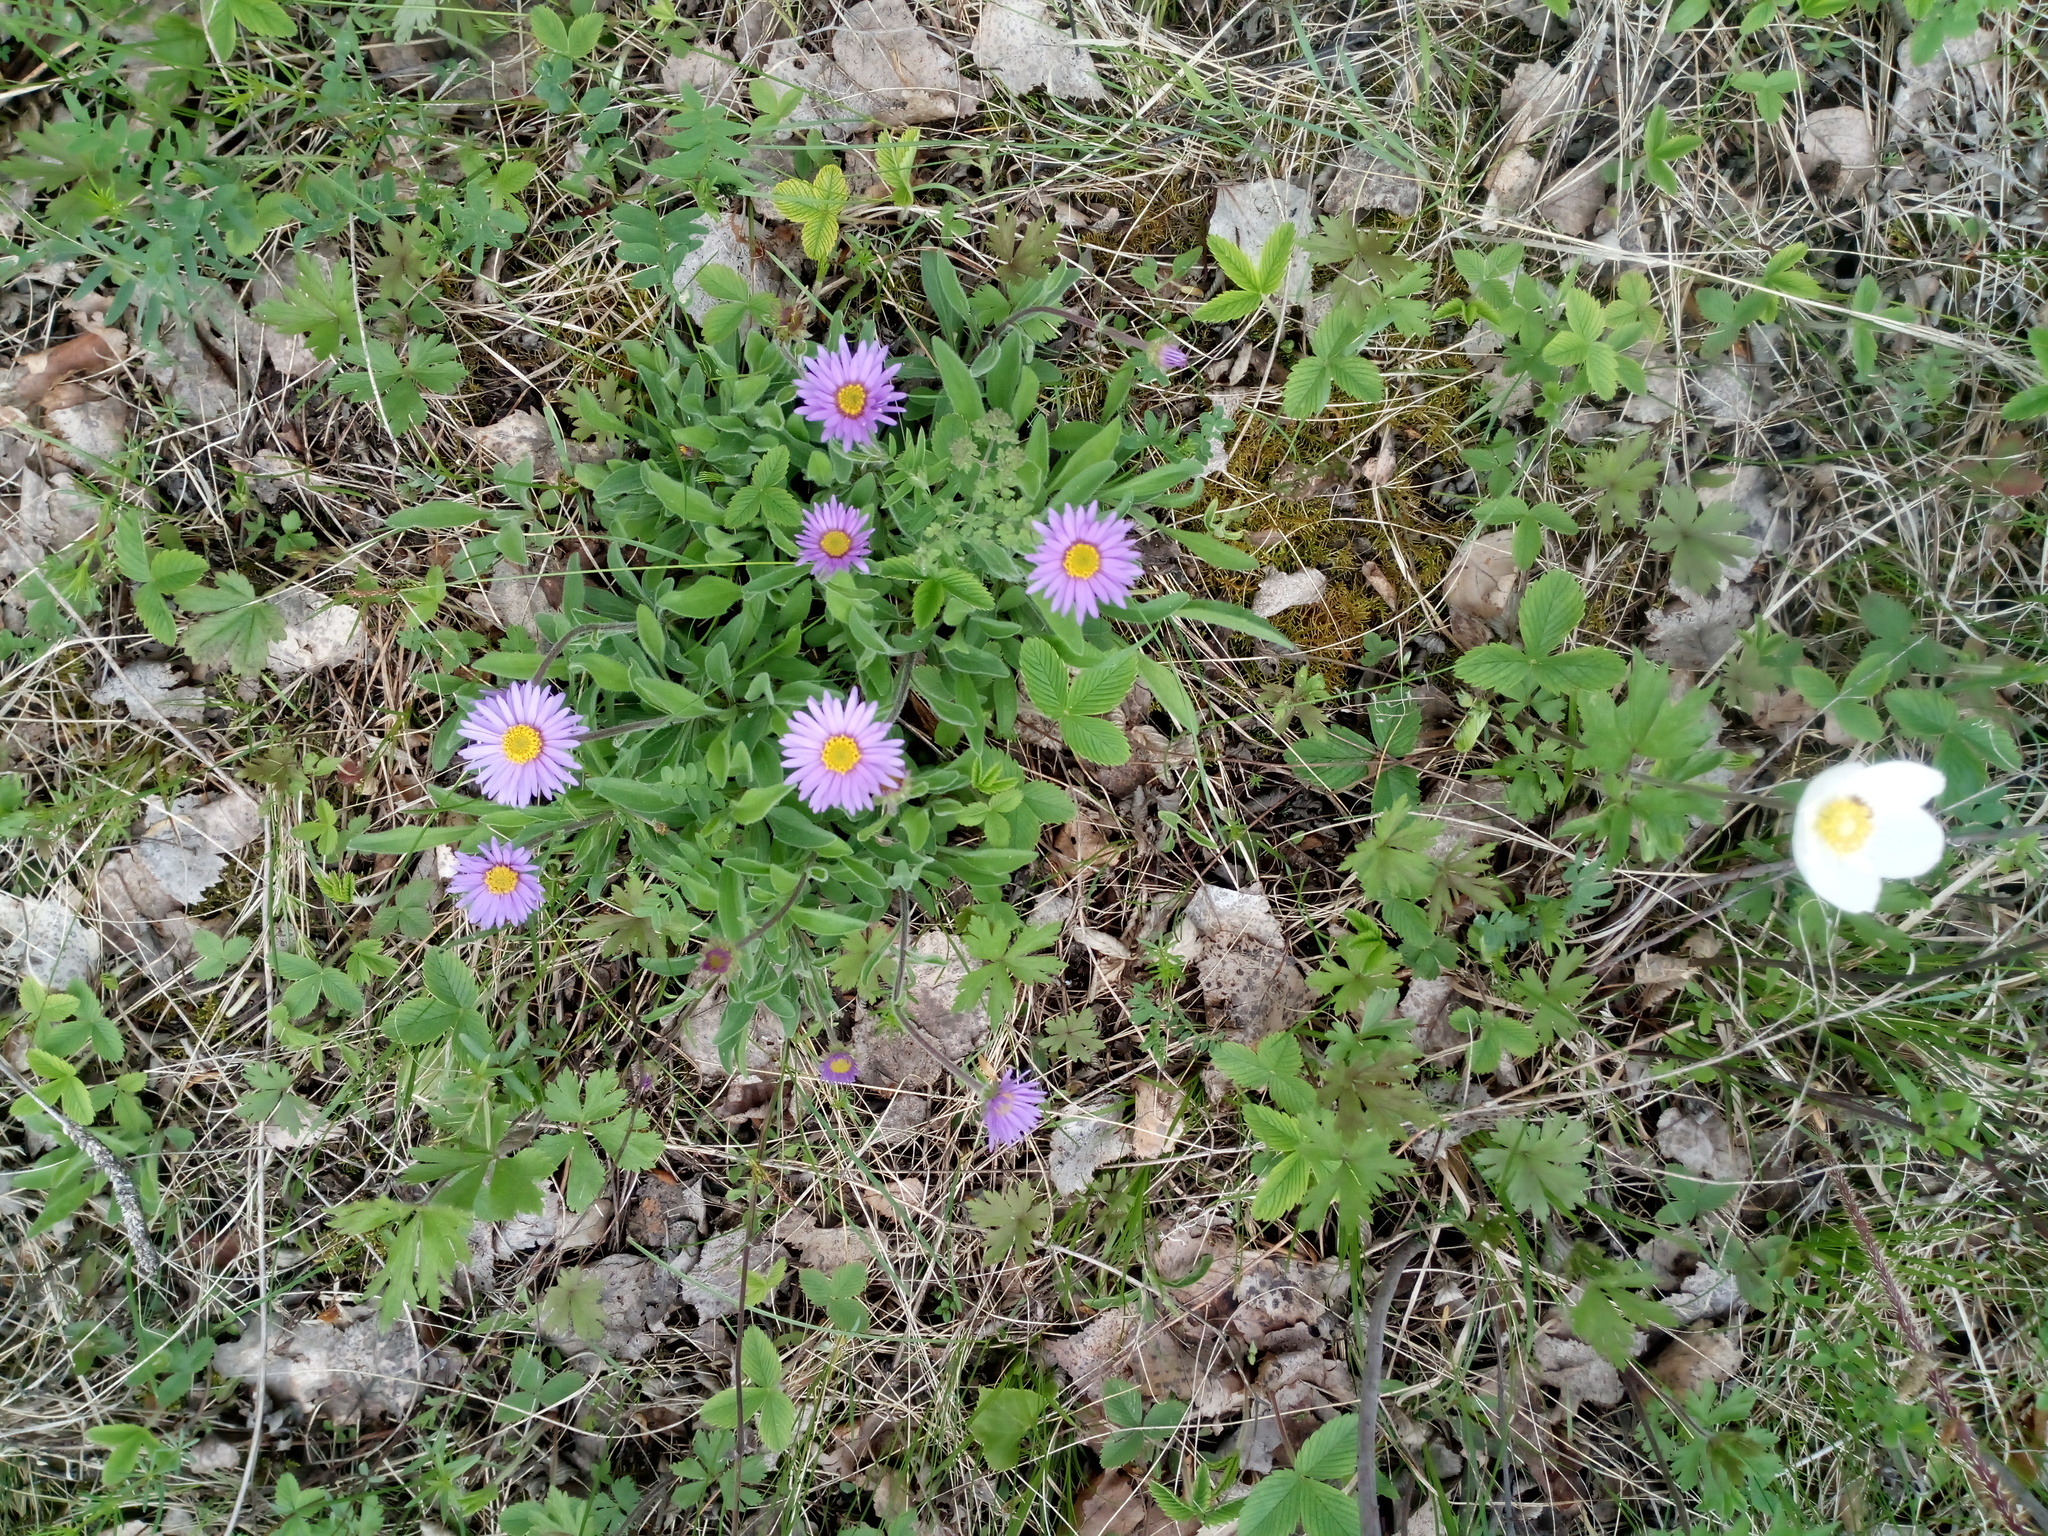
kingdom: Plantae
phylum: Tracheophyta
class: Magnoliopsida
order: Asterales
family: Asteraceae
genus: Aster
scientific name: Aster alpinus
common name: Alpine aster
